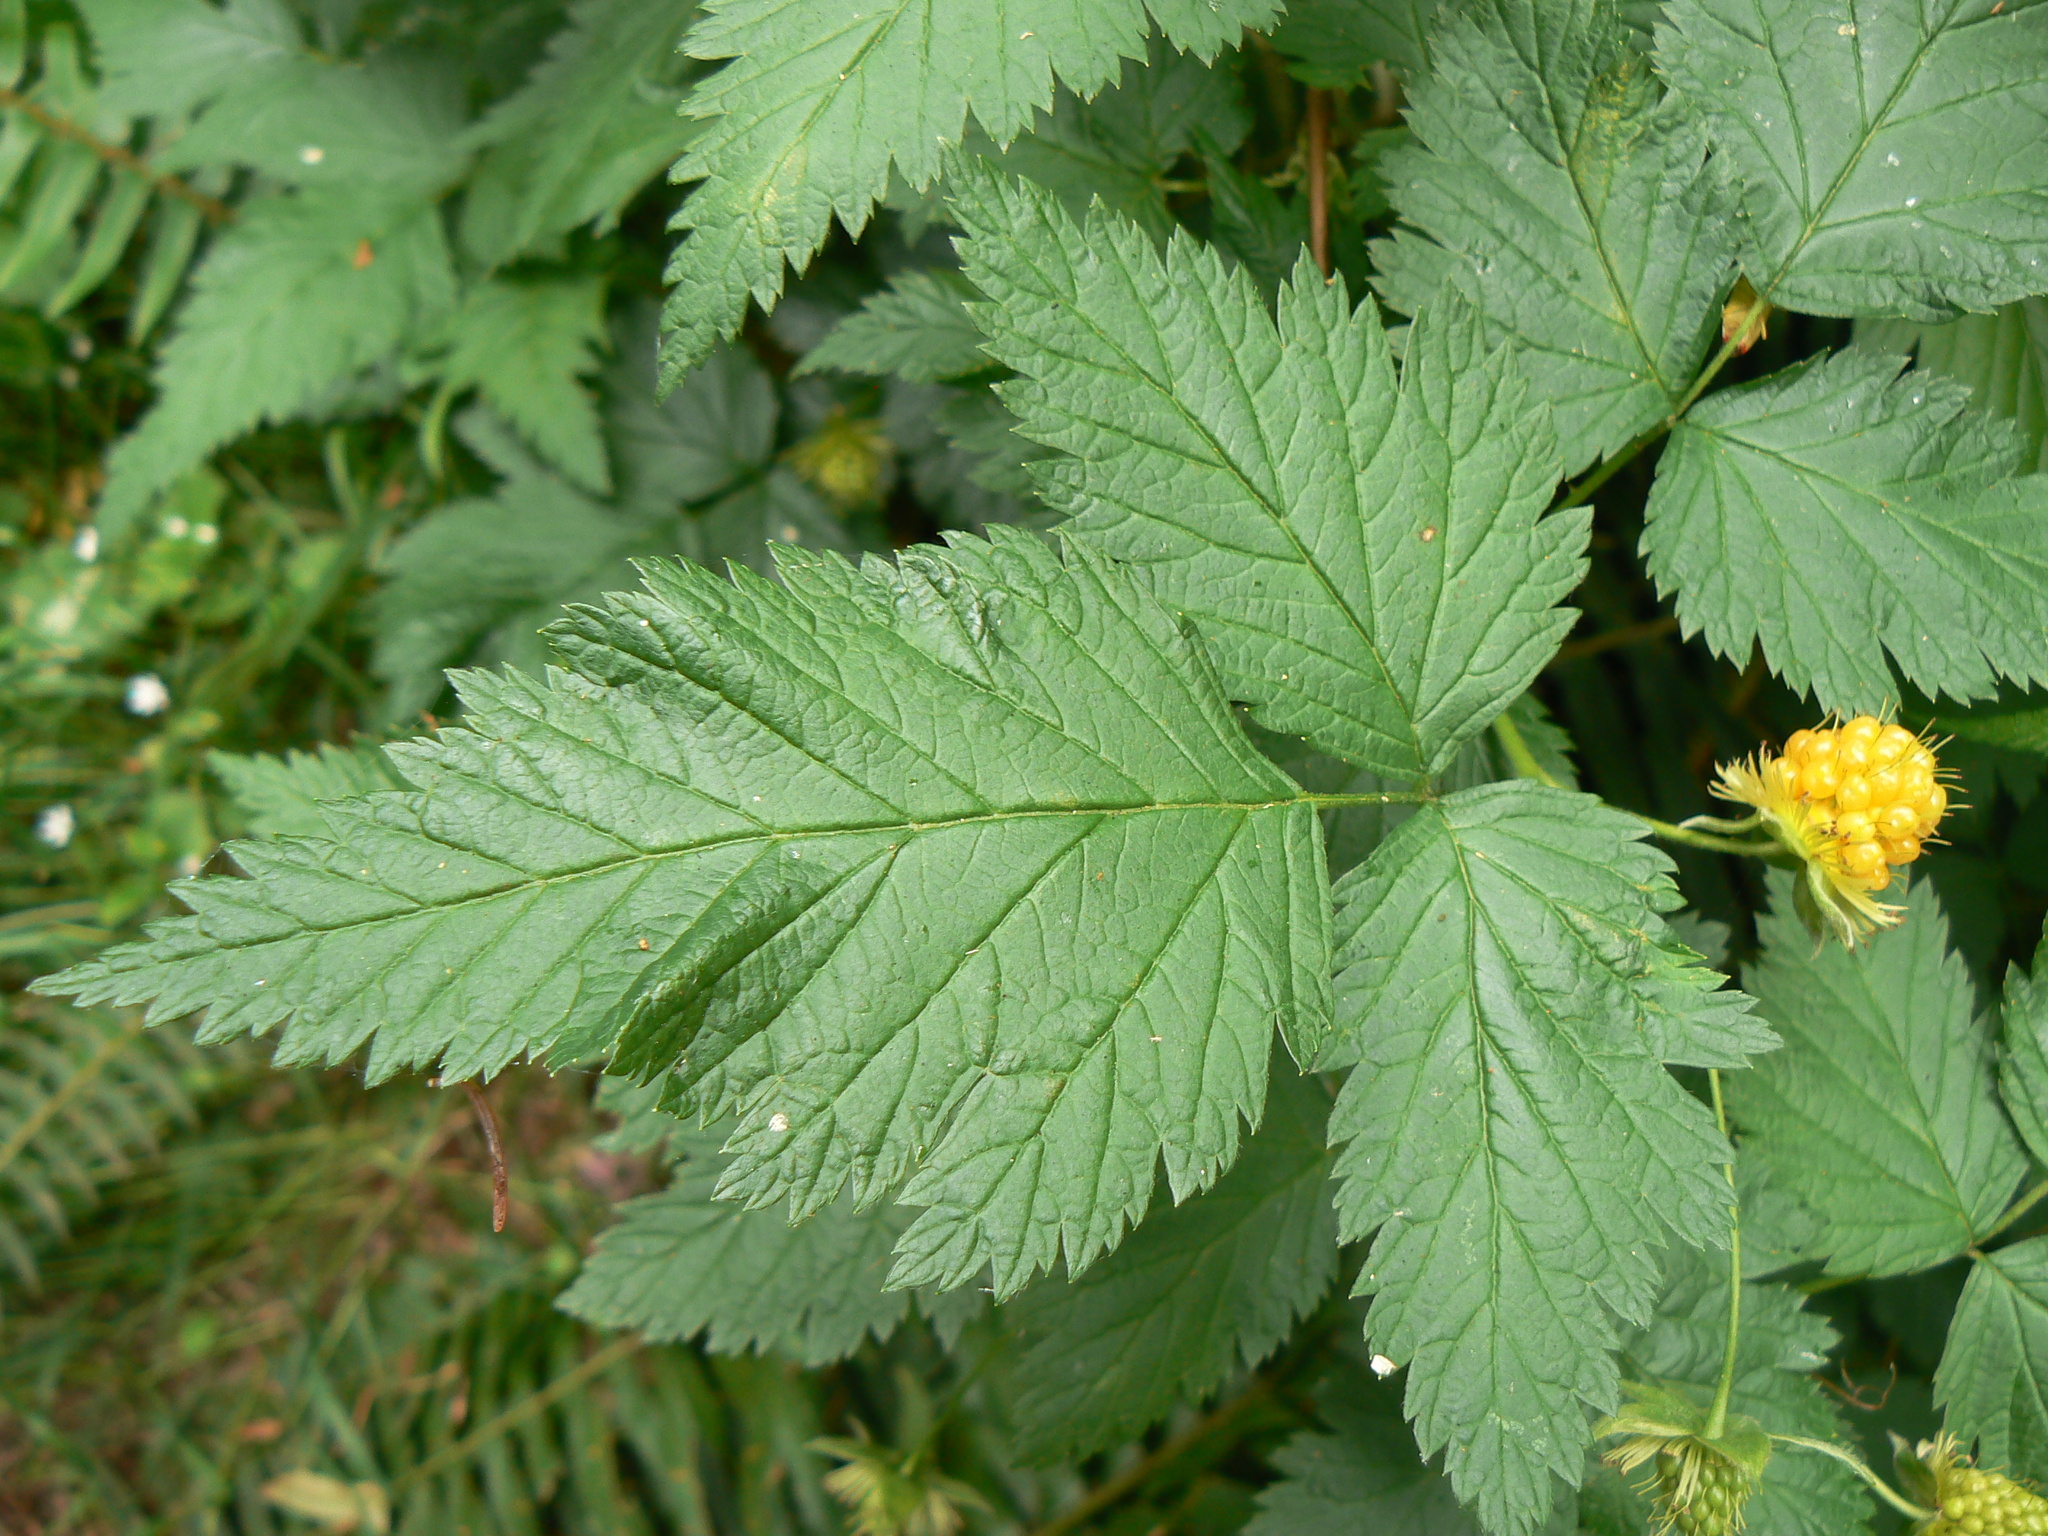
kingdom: Plantae
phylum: Tracheophyta
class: Magnoliopsida
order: Rosales
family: Rosaceae
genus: Rubus
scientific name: Rubus spectabilis
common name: Salmonberry
